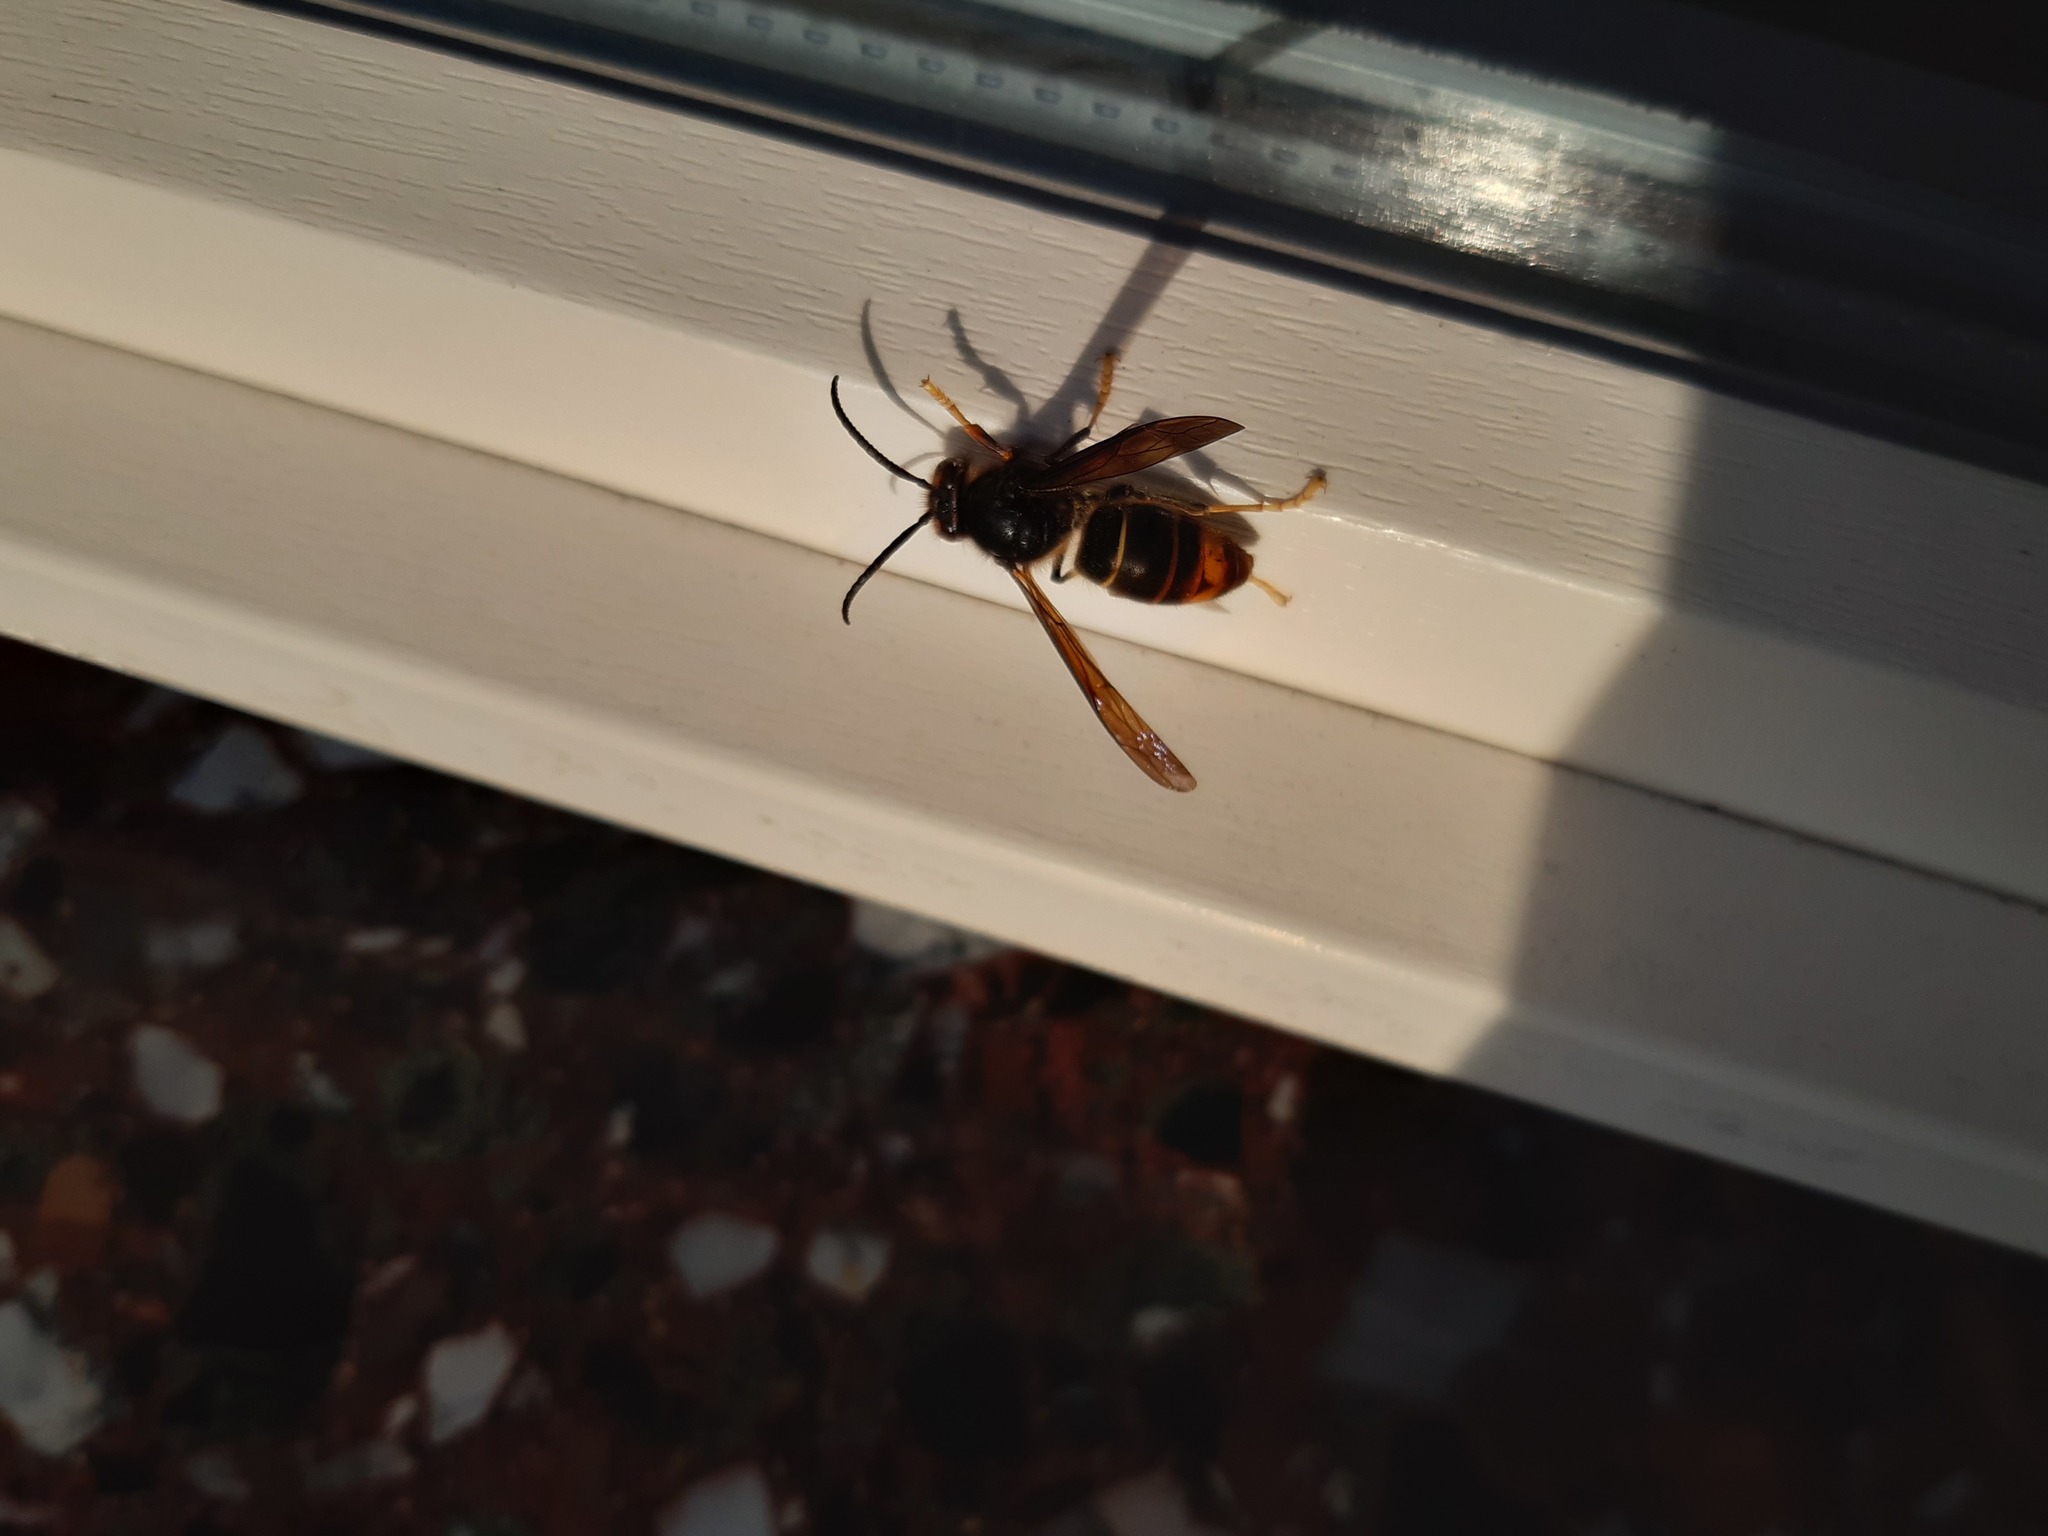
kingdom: Animalia
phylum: Arthropoda
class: Insecta
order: Hymenoptera
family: Vespidae
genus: Vespa
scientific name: Vespa velutina
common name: Asian hornet
